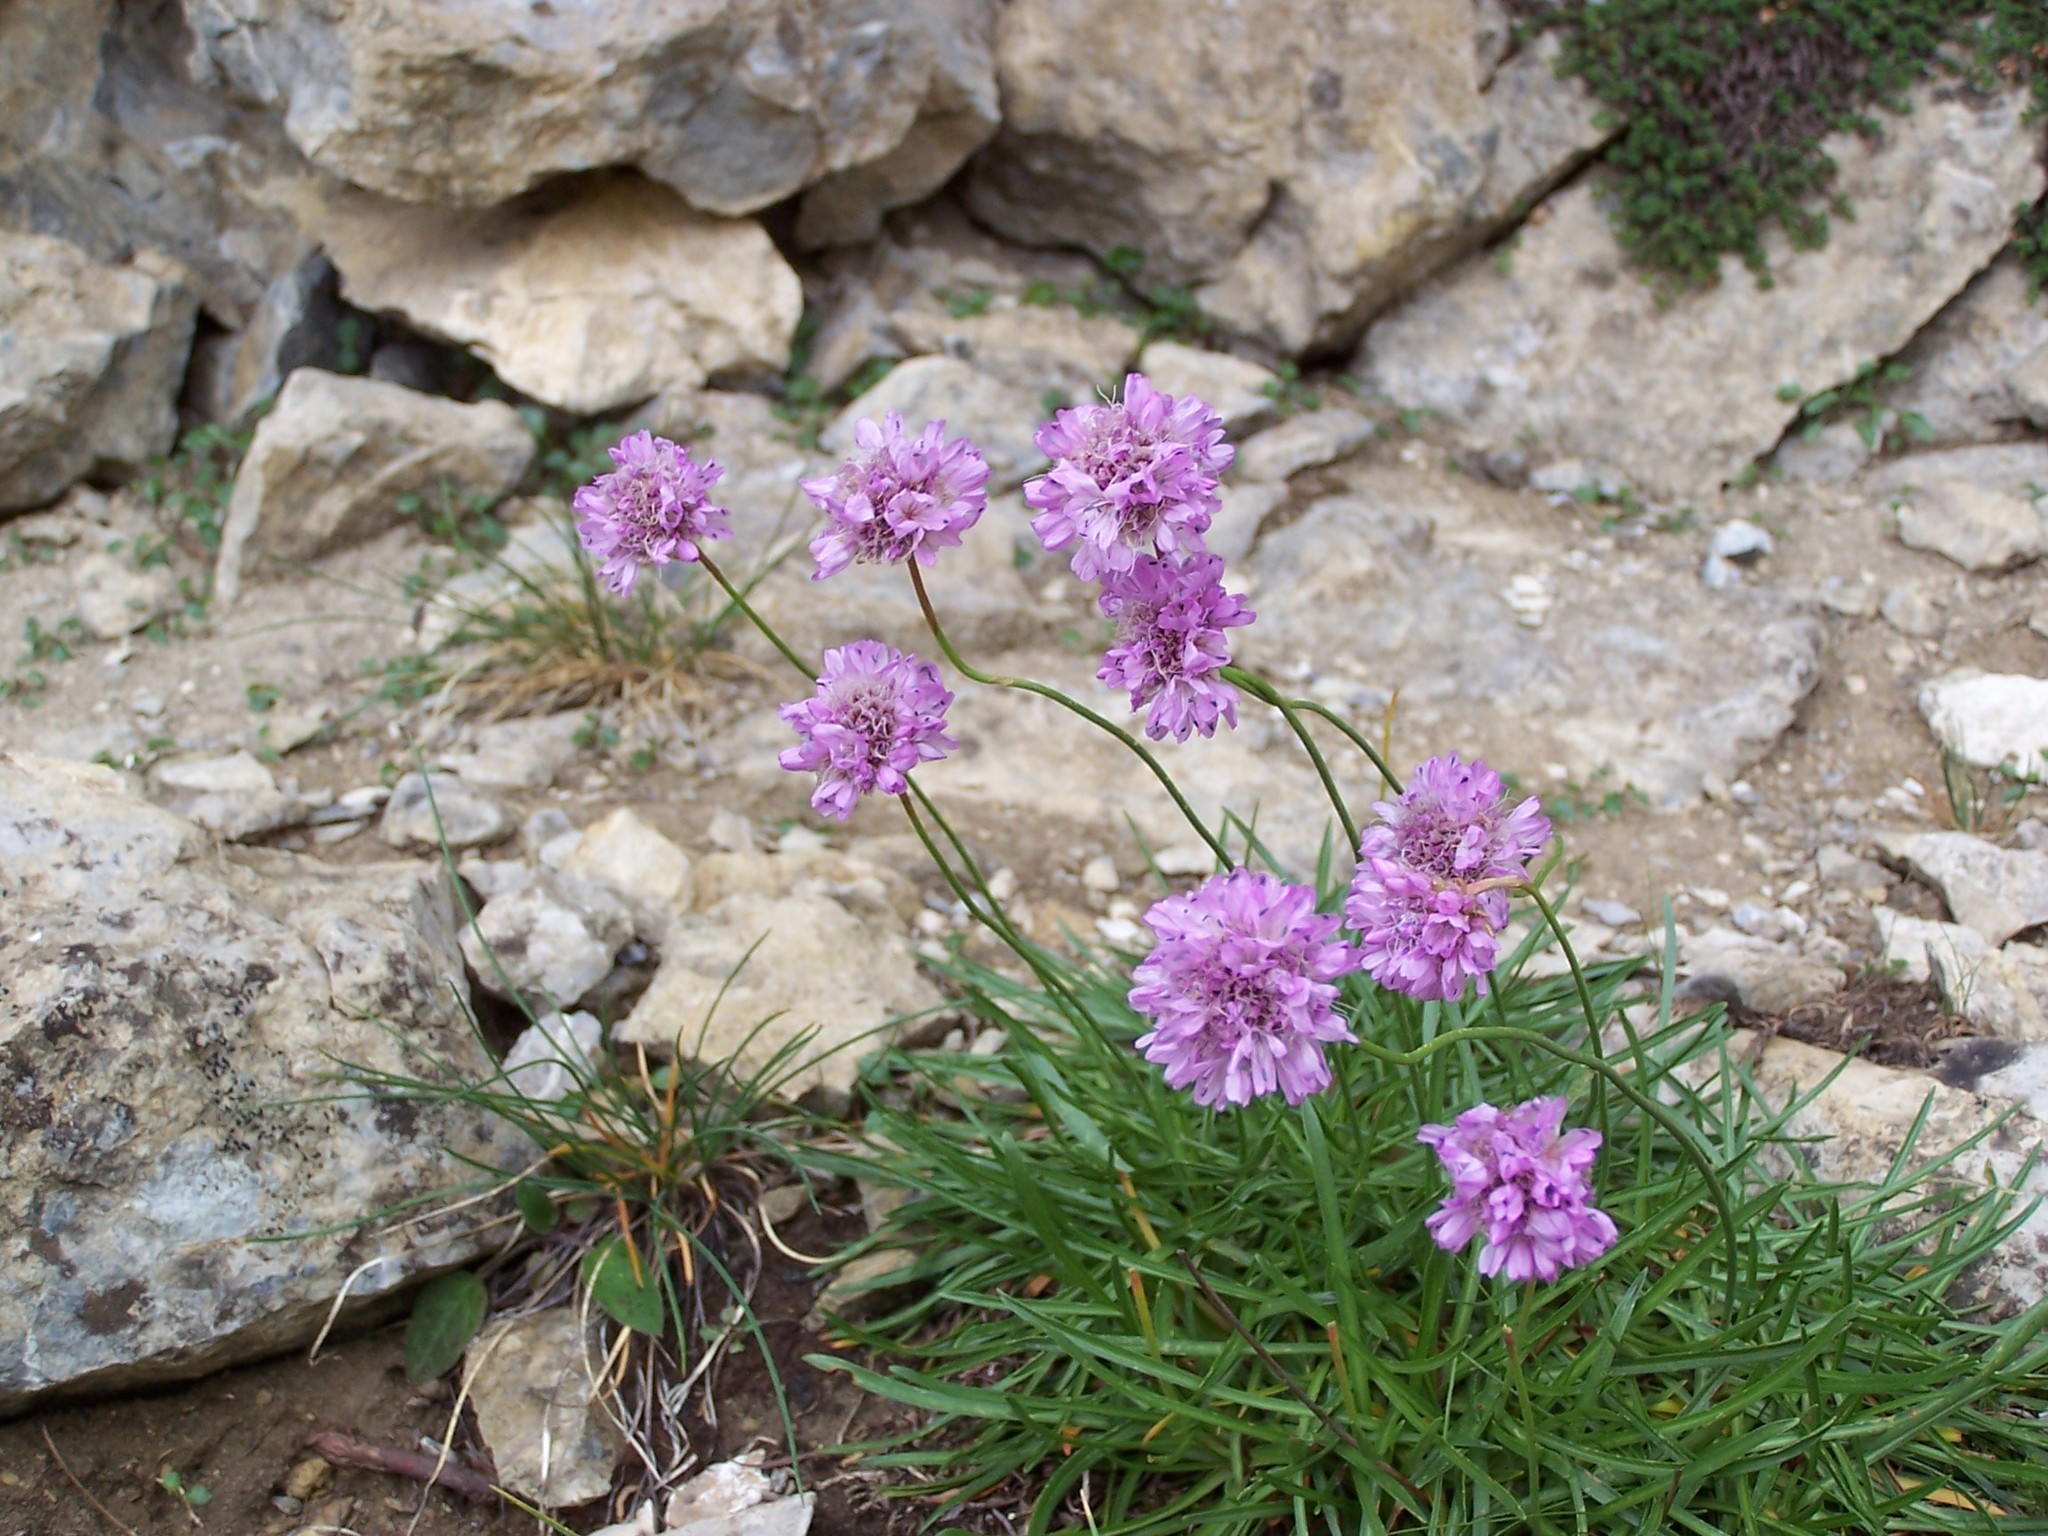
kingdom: Plantae
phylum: Tracheophyta
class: Magnoliopsida
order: Caryophyllales
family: Plumbaginaceae
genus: Armeria
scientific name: Armeria alpina
